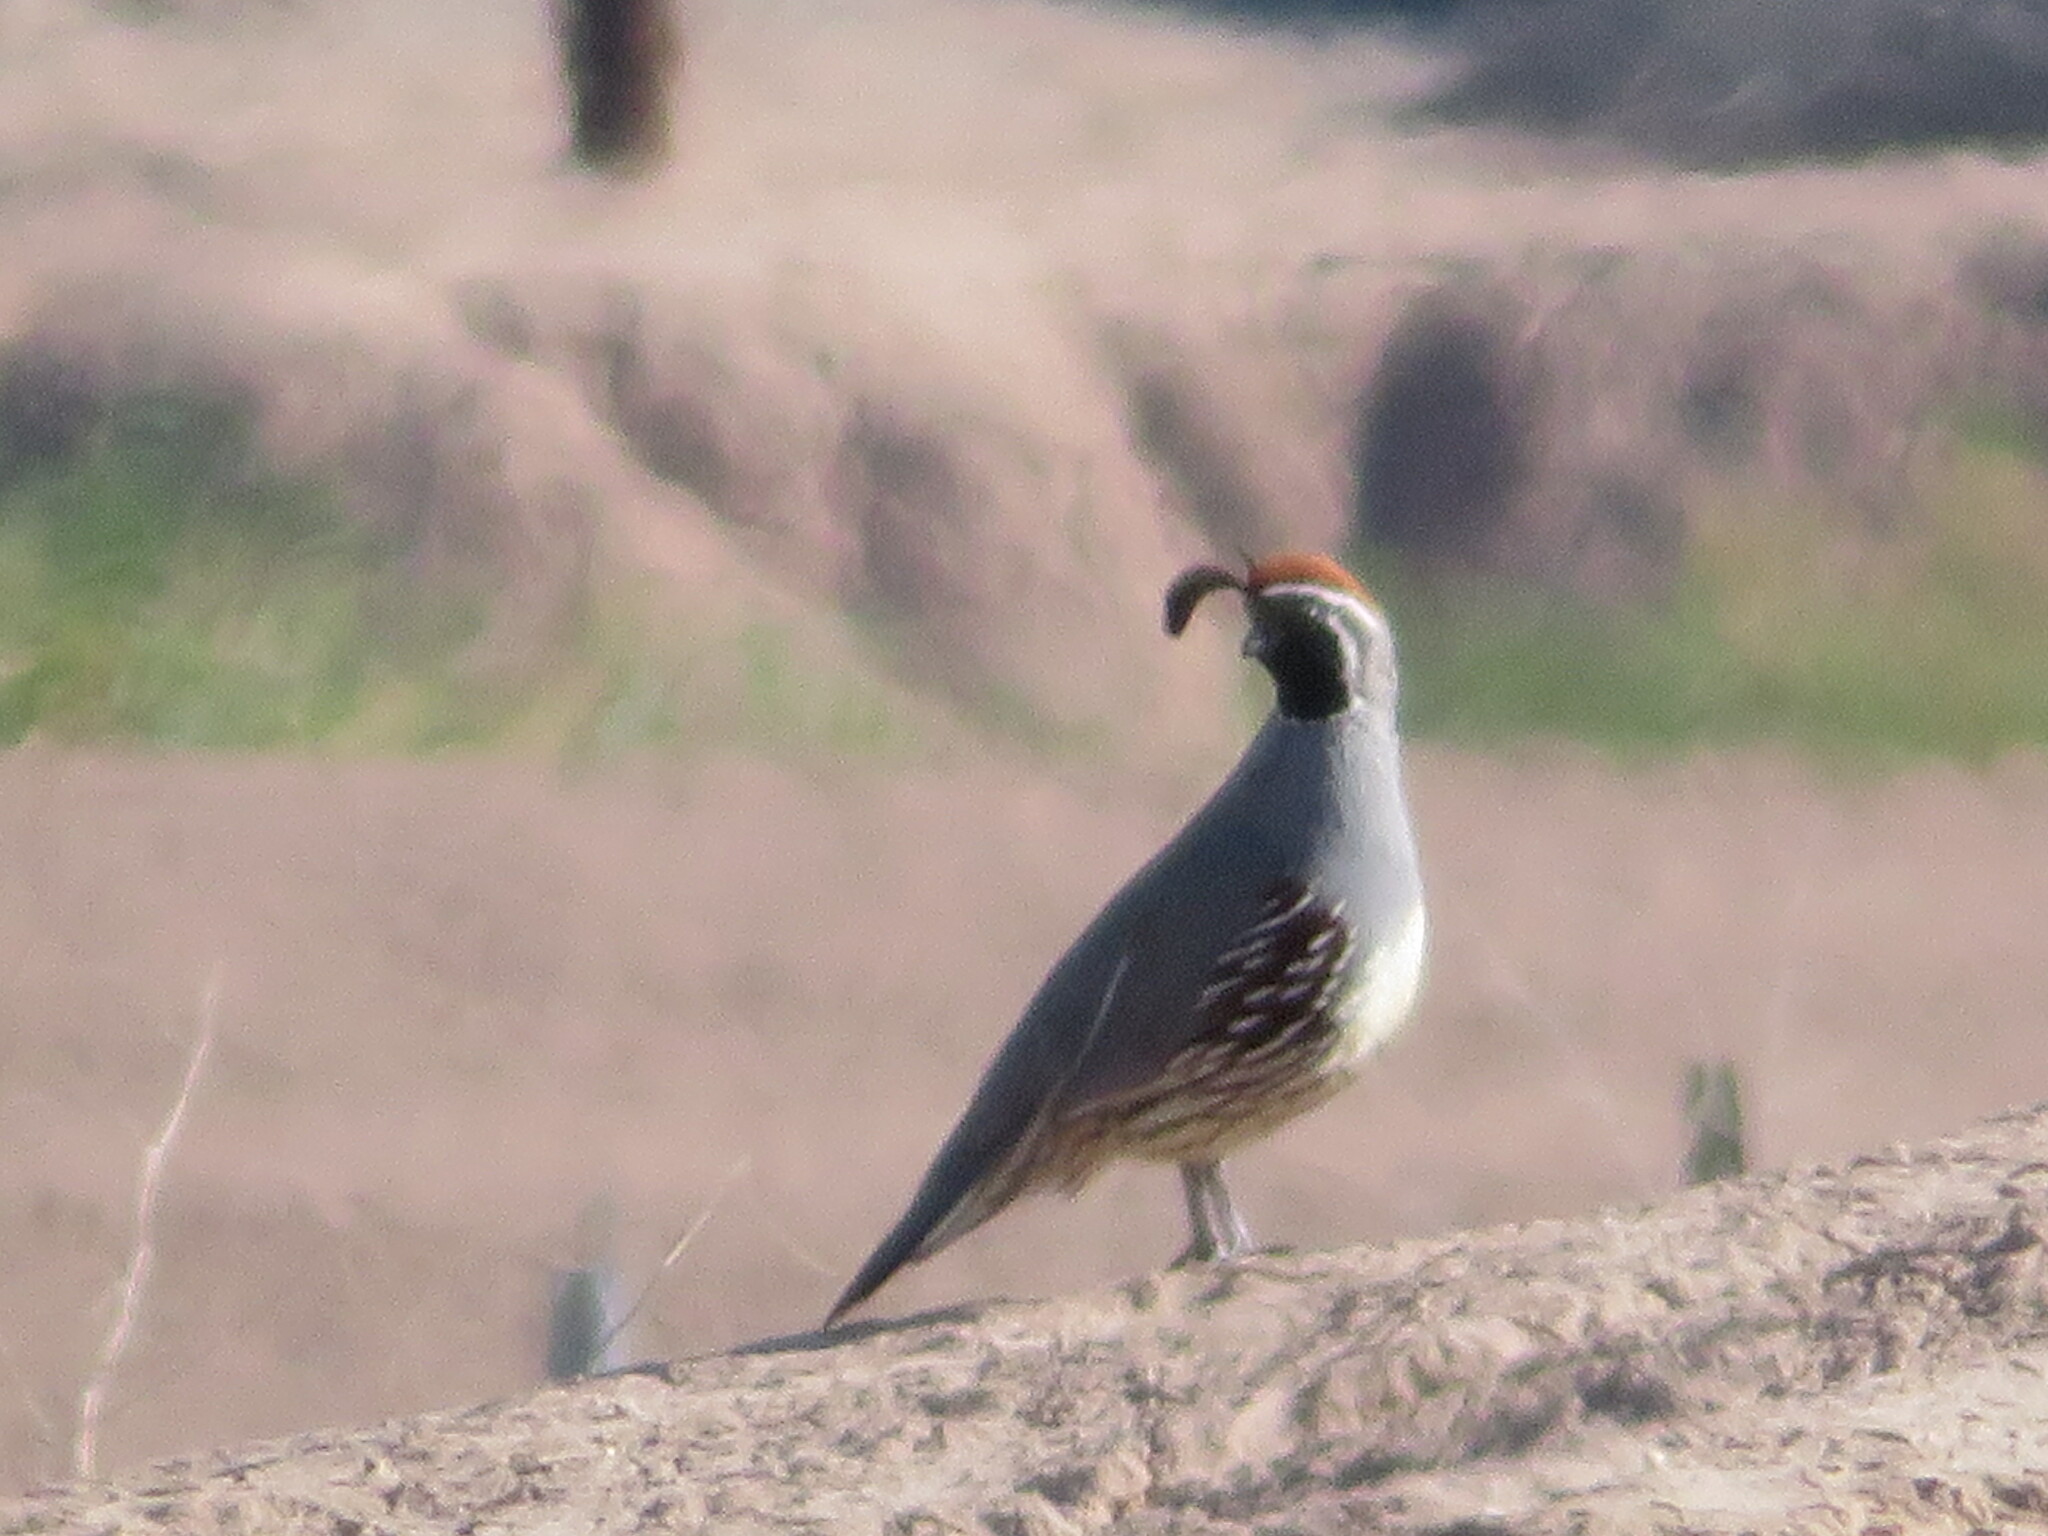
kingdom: Animalia
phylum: Chordata
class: Aves
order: Galliformes
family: Odontophoridae
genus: Callipepla
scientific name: Callipepla gambelii
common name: Gambel's quail
